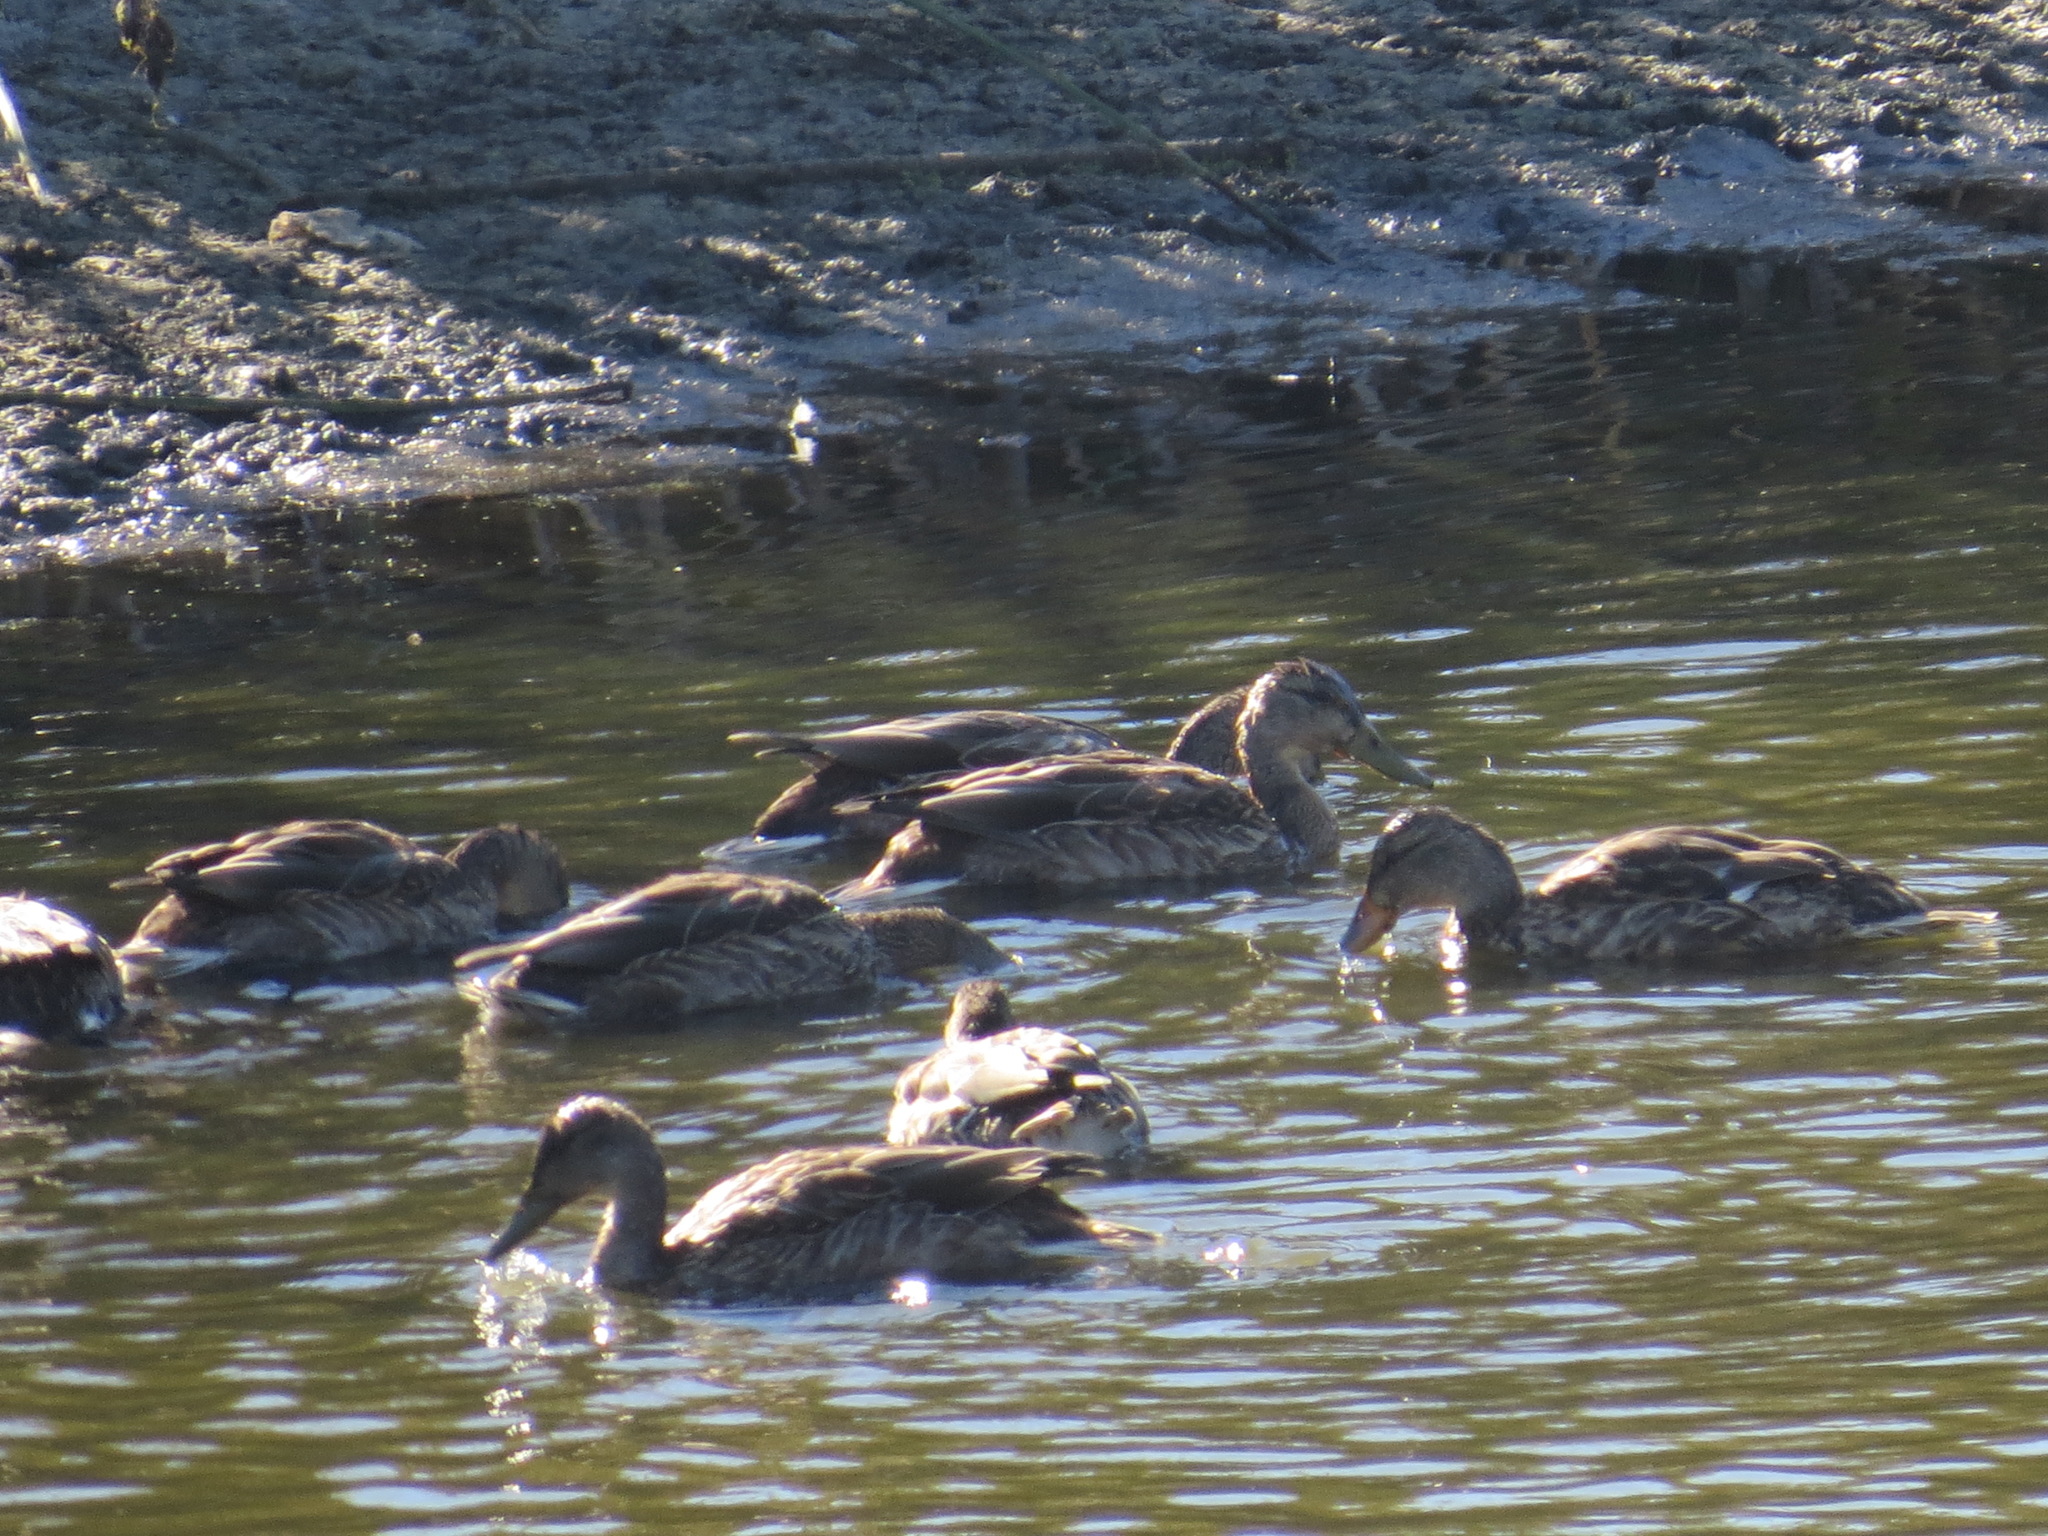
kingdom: Animalia
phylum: Chordata
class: Aves
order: Anseriformes
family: Anatidae
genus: Anas
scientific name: Anas platyrhynchos
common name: Mallard
